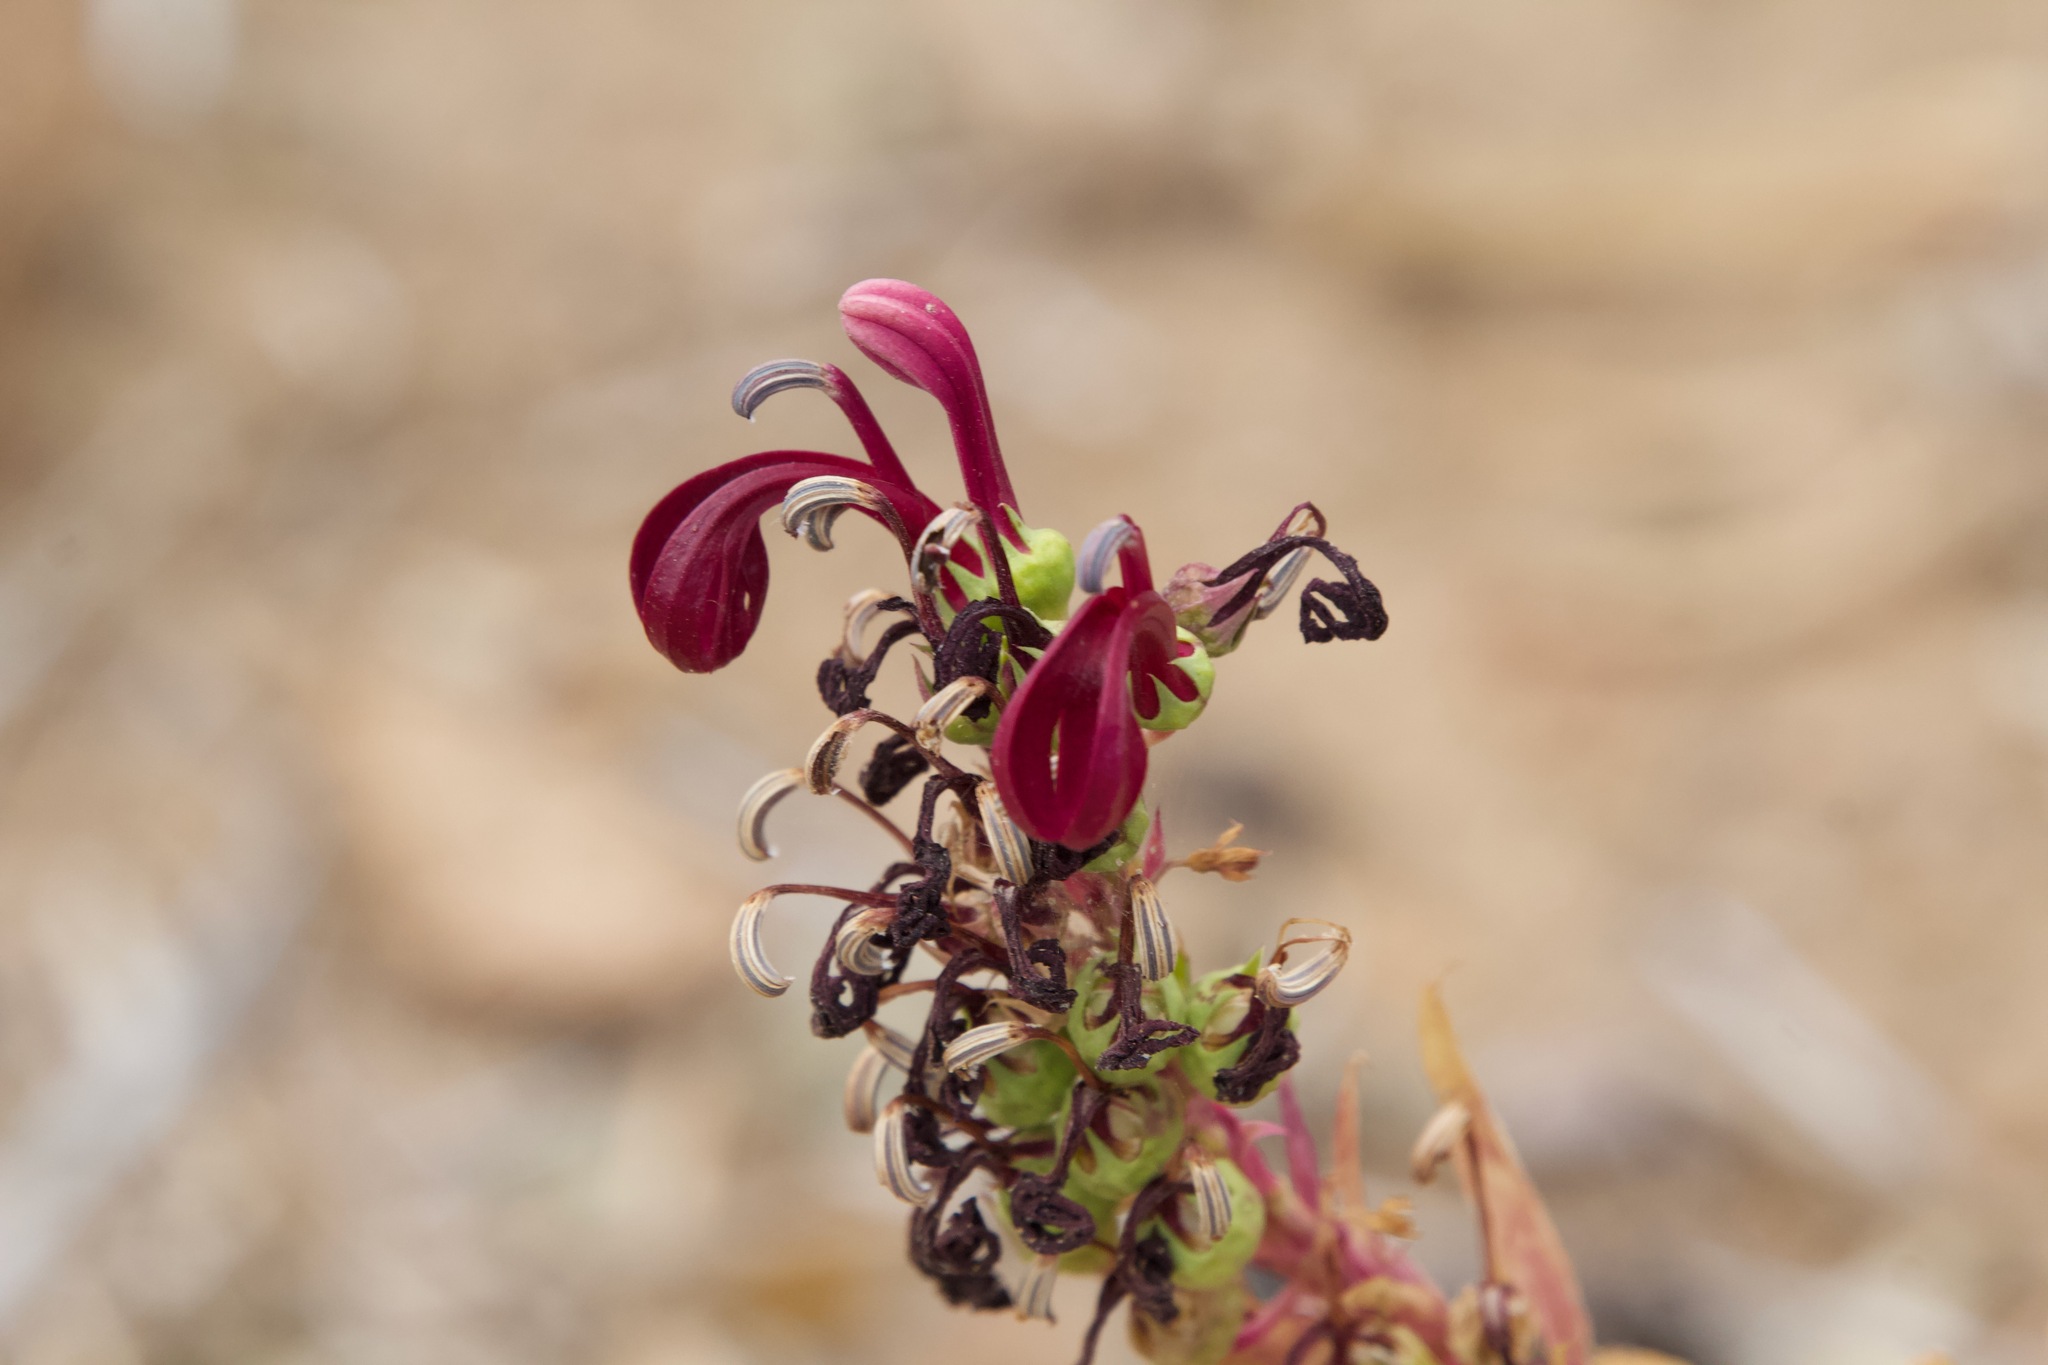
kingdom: Plantae
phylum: Tracheophyta
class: Magnoliopsida
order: Asterales
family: Campanulaceae
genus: Lobelia
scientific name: Lobelia polyphylla
